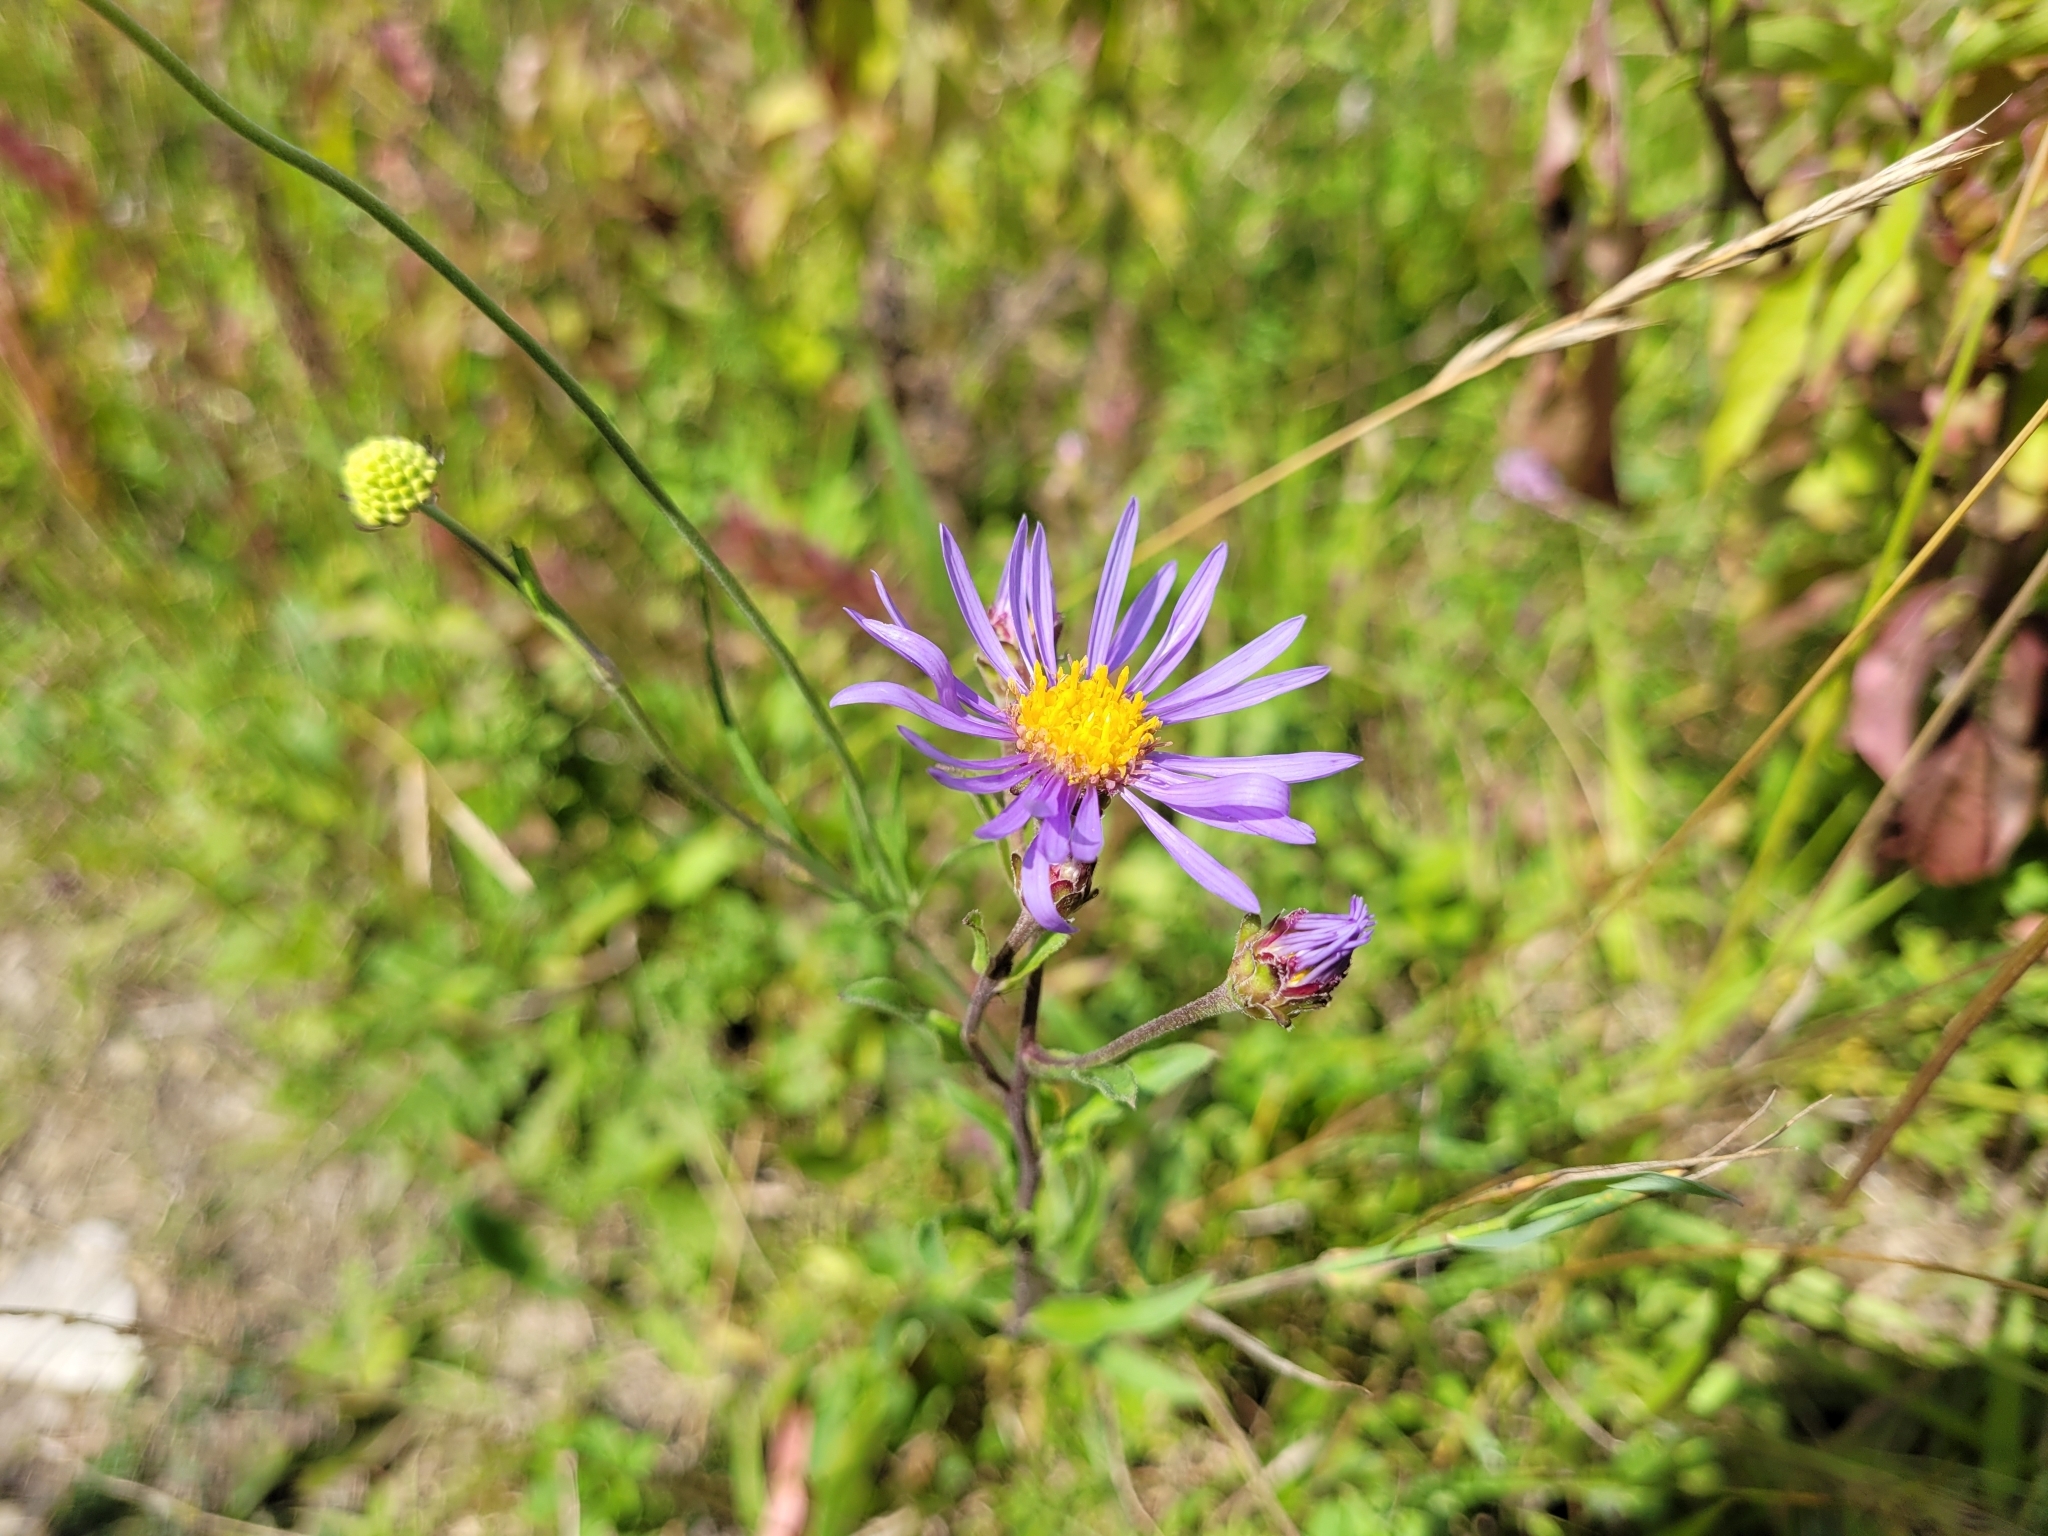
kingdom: Plantae
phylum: Tracheophyta
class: Magnoliopsida
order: Asterales
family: Asteraceae
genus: Aster
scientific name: Aster amellus
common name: European michaelmas daisy
